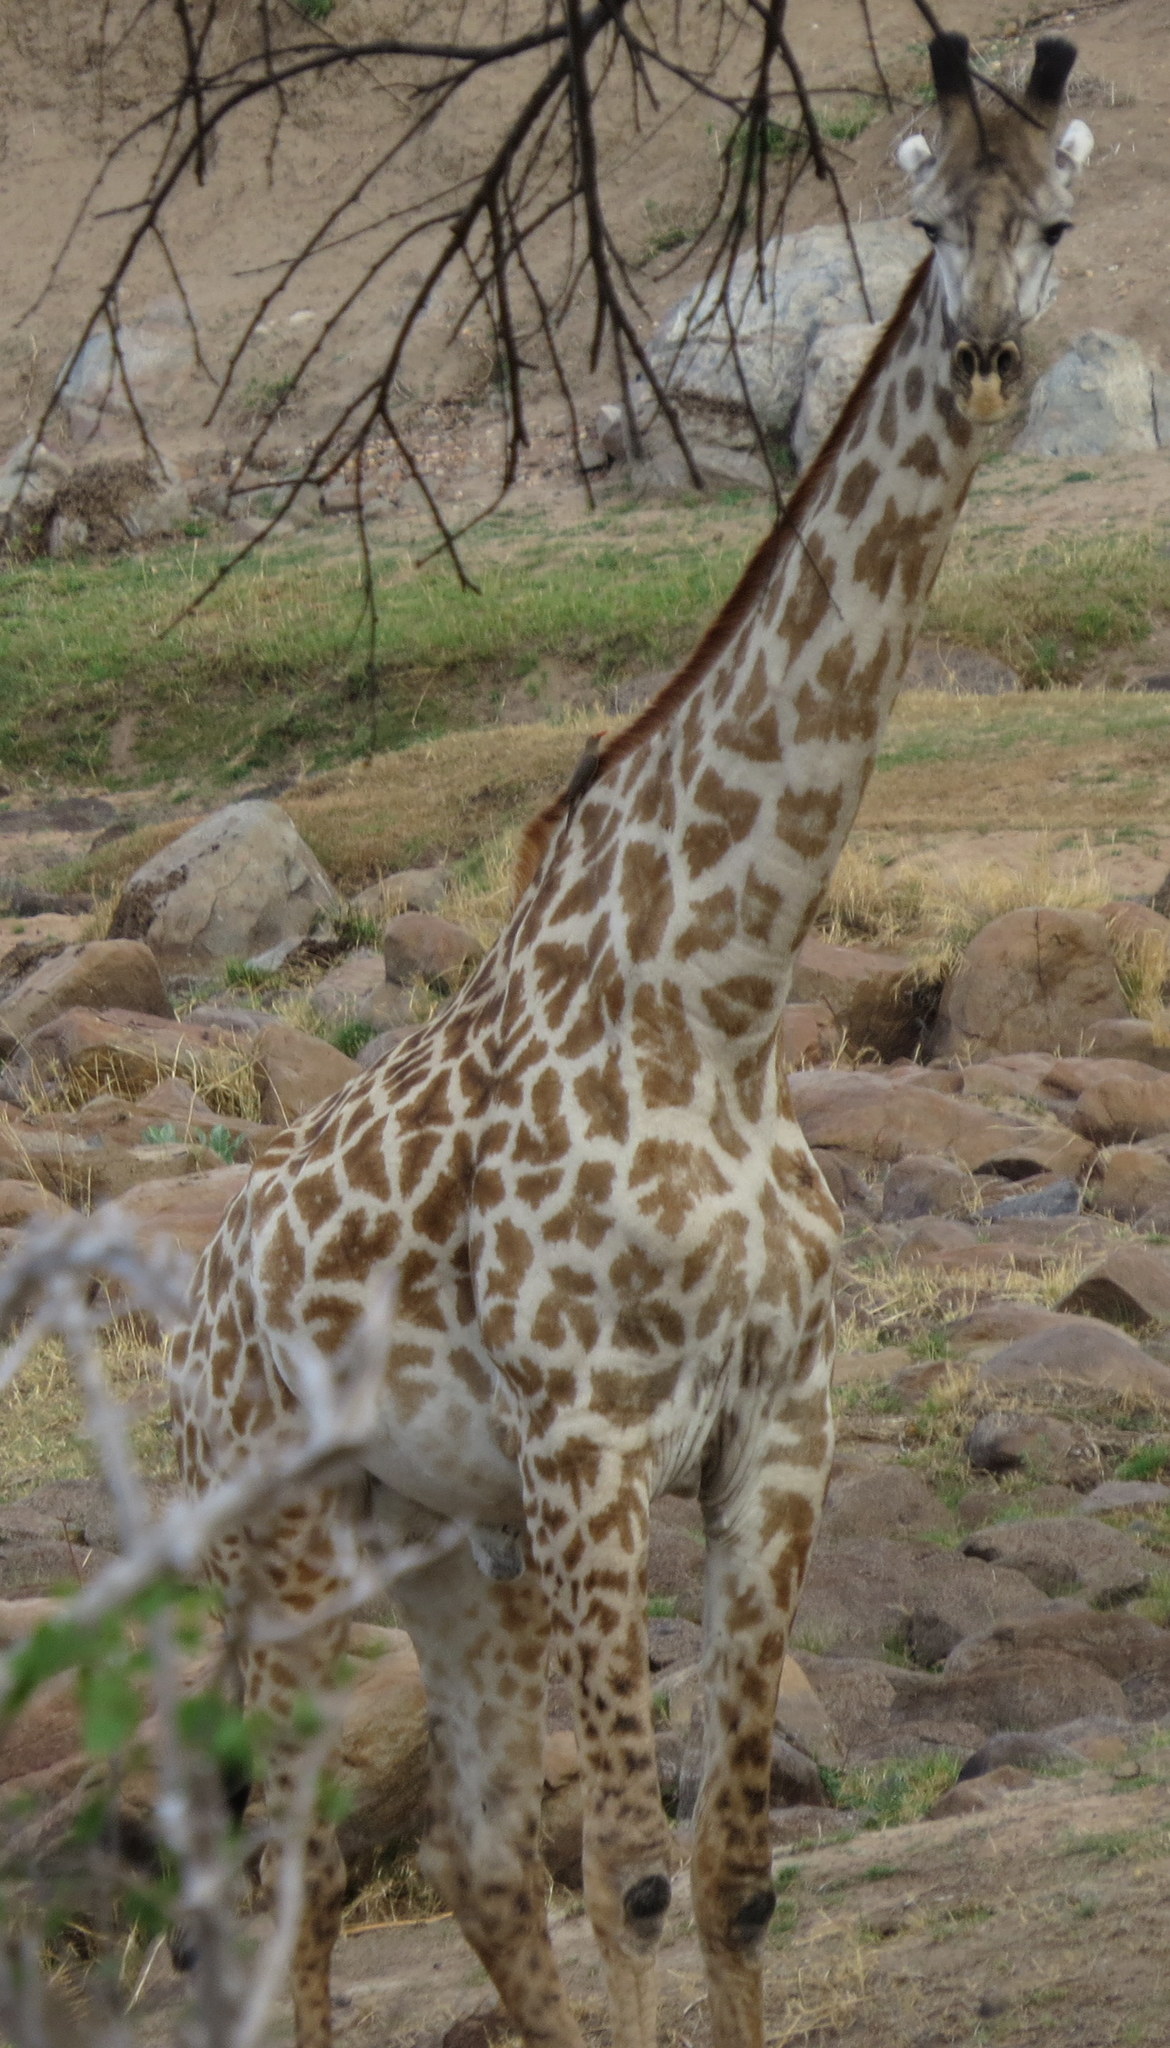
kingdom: Animalia
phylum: Chordata
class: Mammalia
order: Artiodactyla
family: Giraffidae
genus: Giraffa
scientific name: Giraffa tippelskirchi
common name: Masai giraffe
